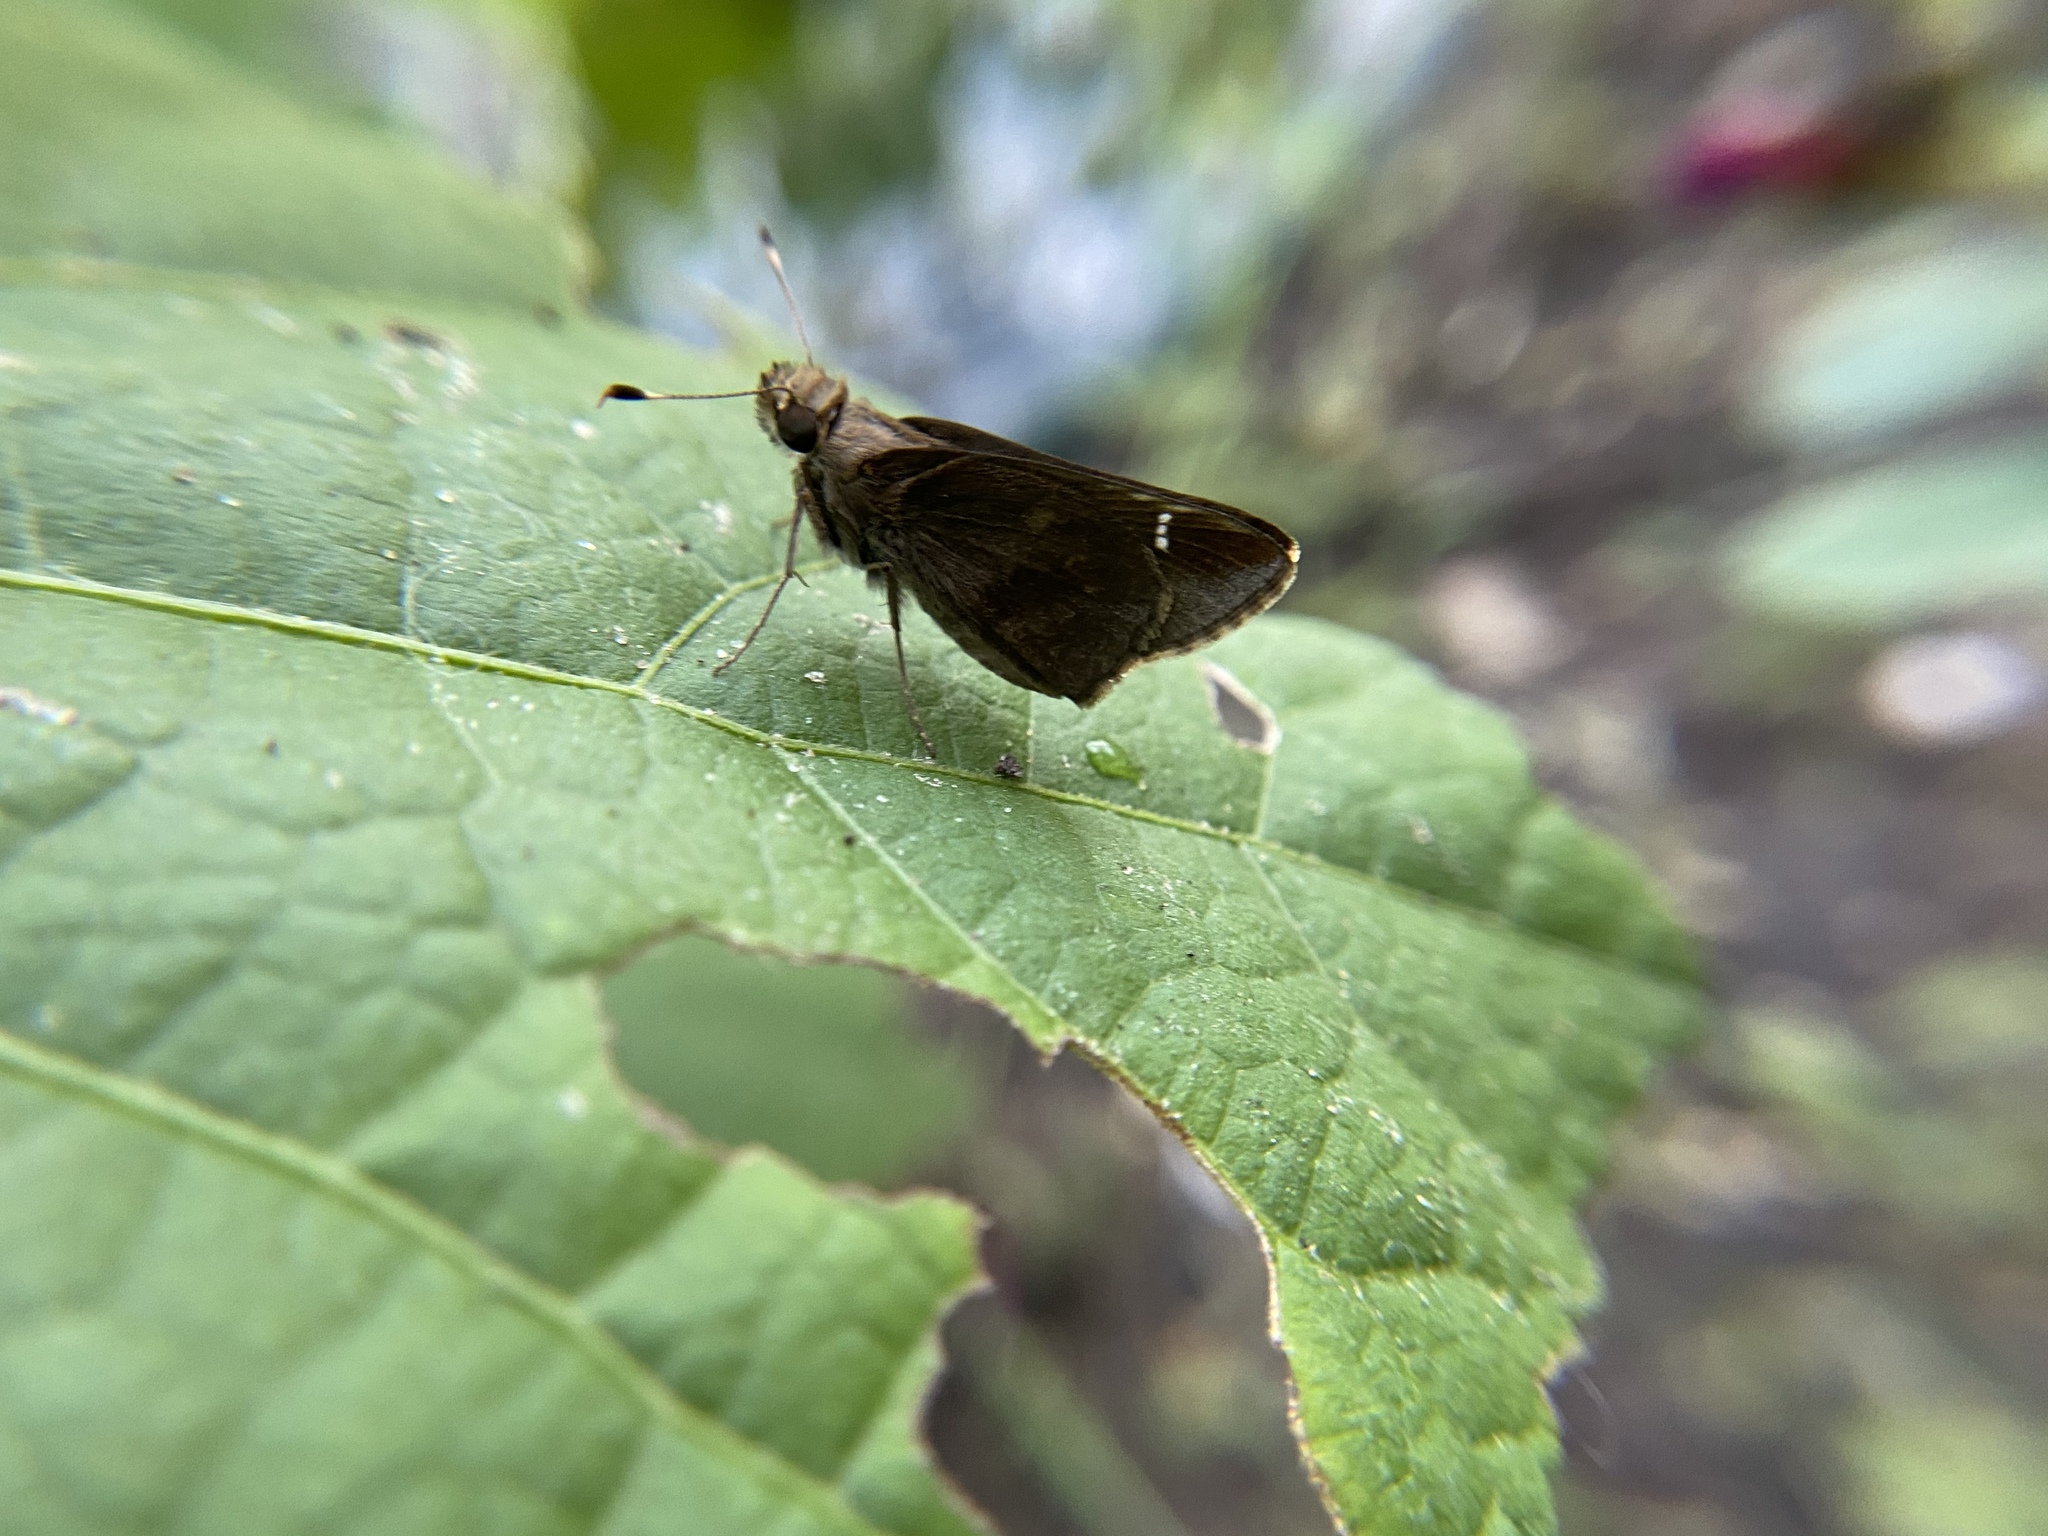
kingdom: Animalia
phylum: Arthropoda
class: Insecta
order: Lepidoptera
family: Hesperiidae
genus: Lerema
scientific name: Lerema accius
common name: Clouded skipper
